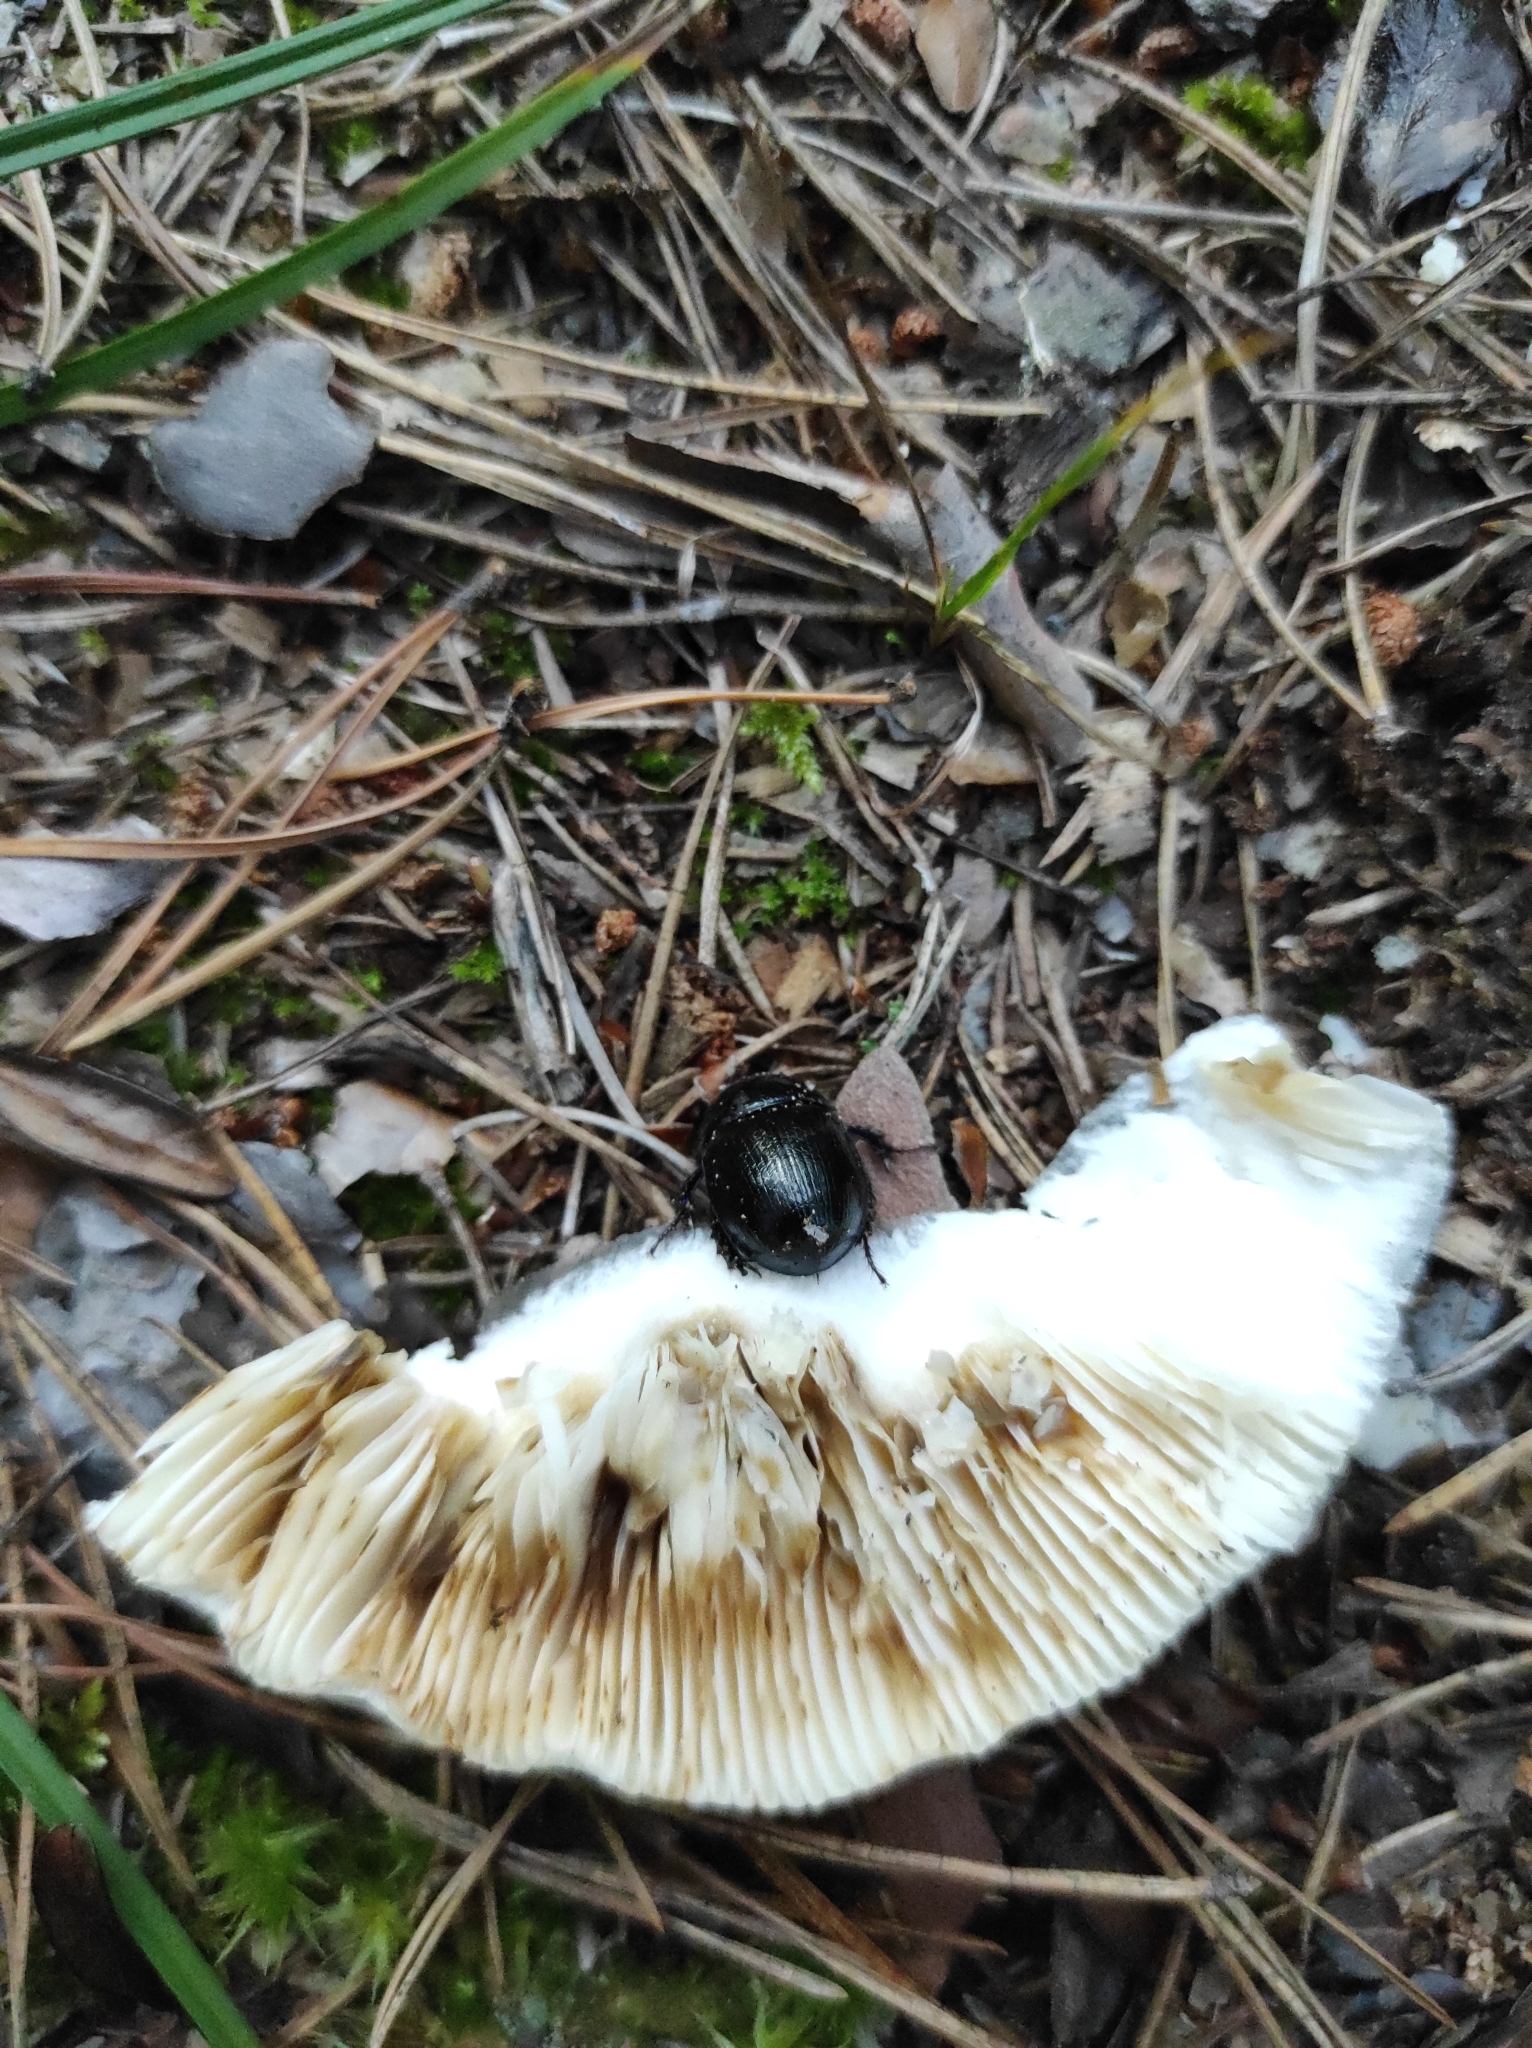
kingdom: Animalia
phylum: Arthropoda
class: Insecta
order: Coleoptera
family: Geotrupidae
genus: Anoplotrupes
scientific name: Anoplotrupes stercorosus
